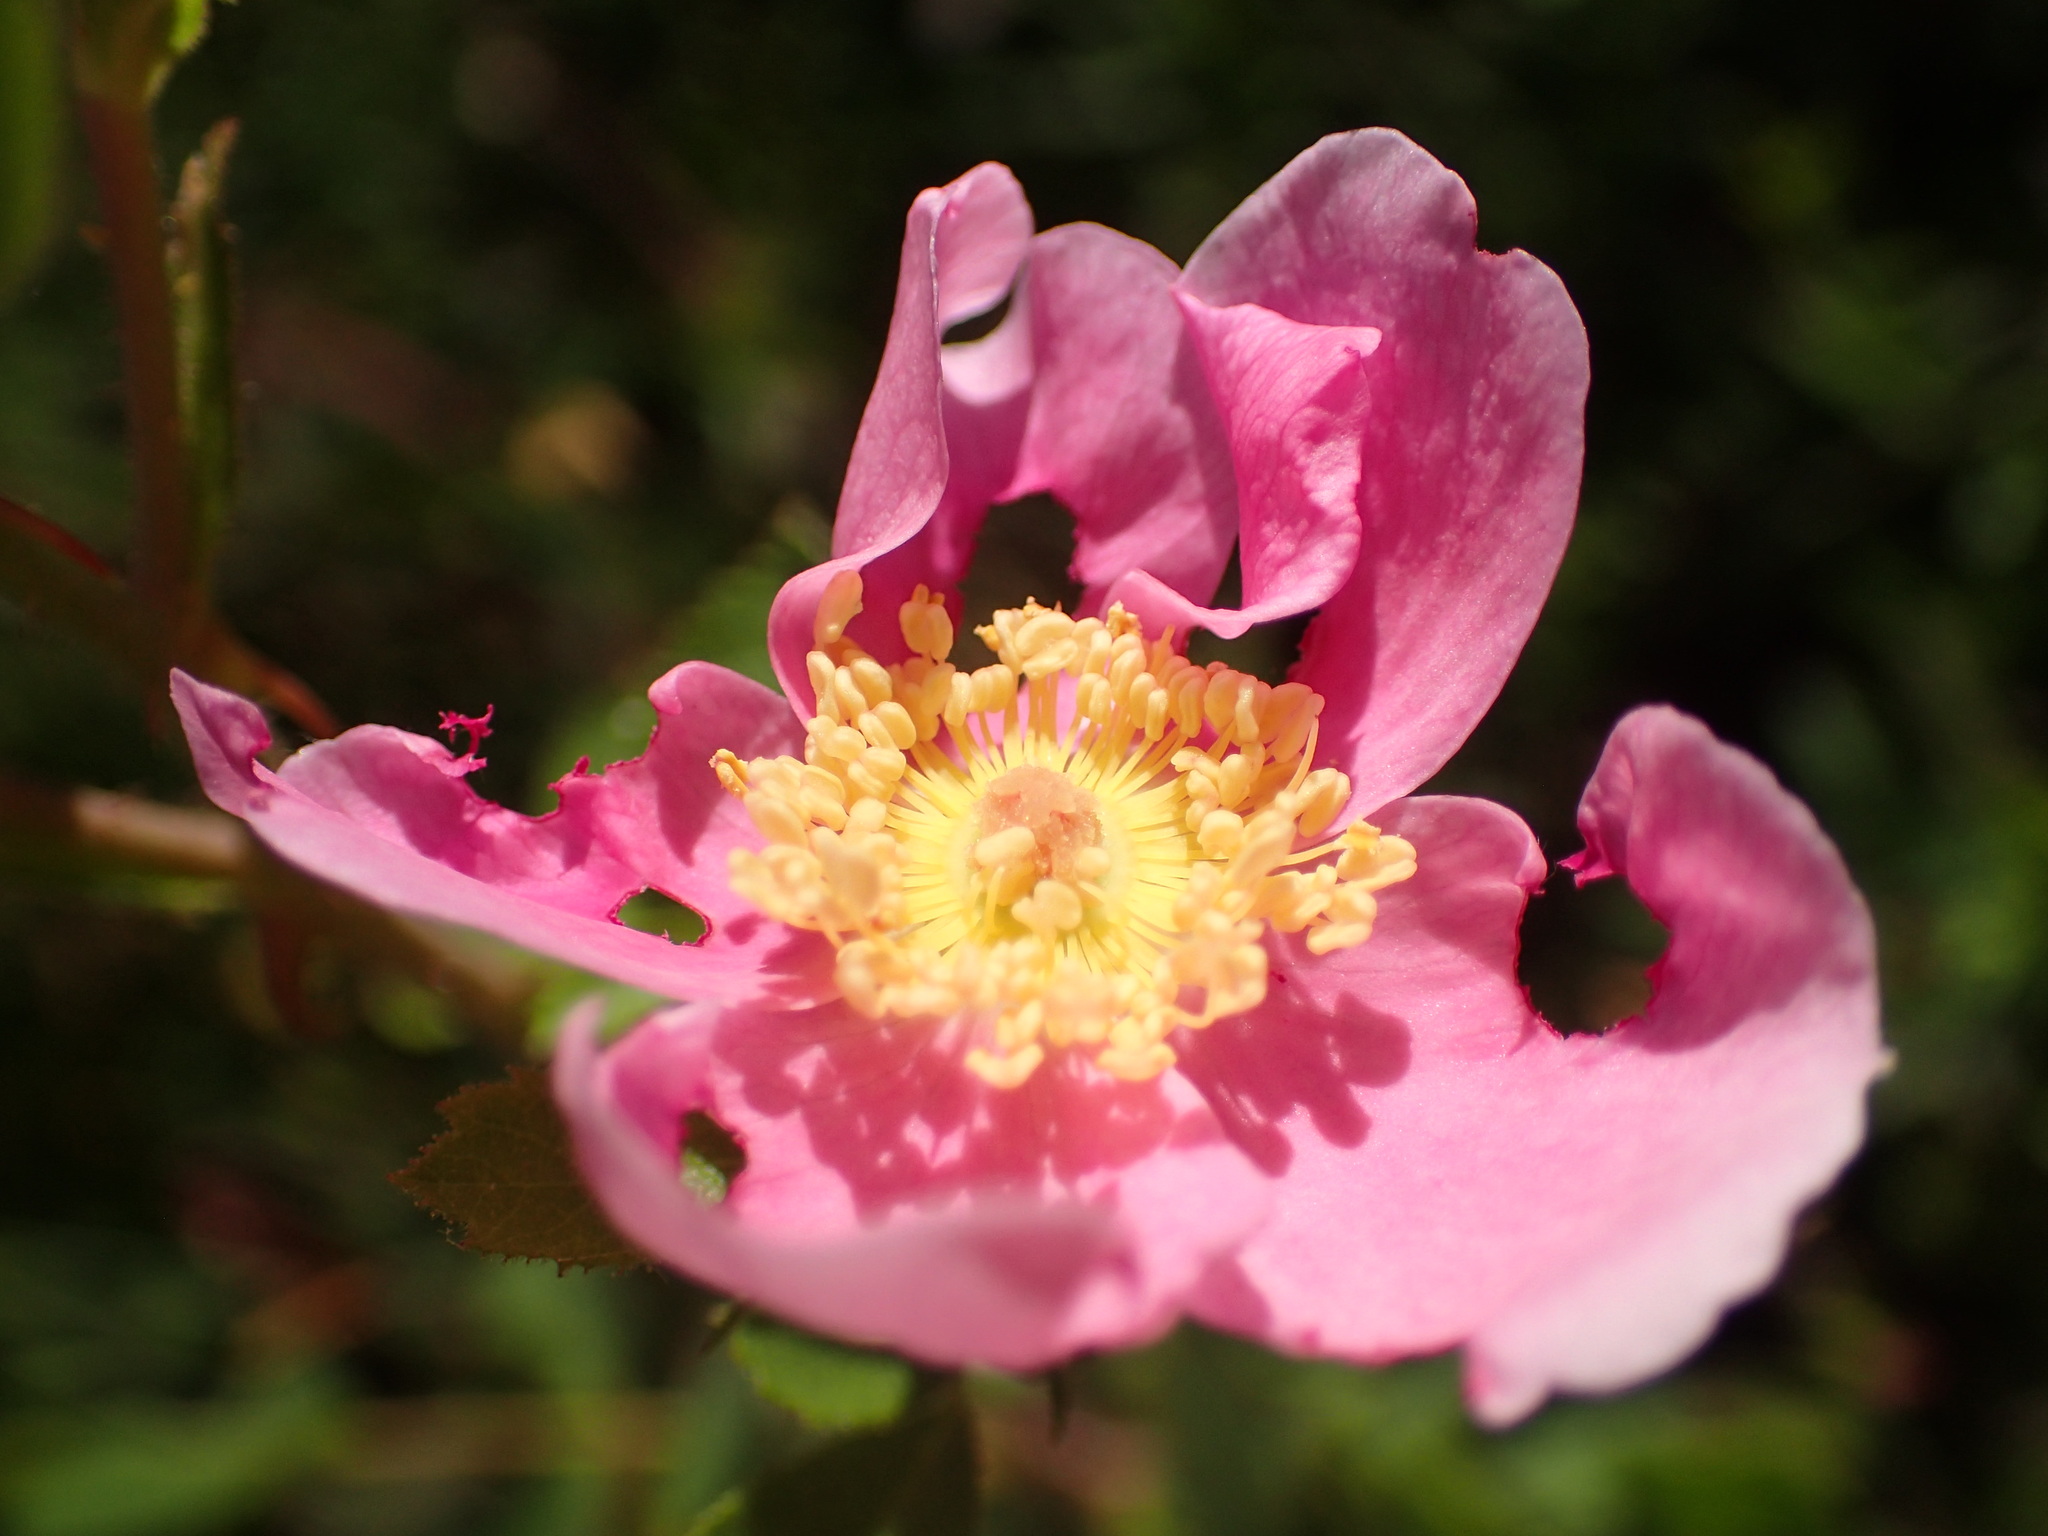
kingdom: Plantae
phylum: Tracheophyta
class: Magnoliopsida
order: Rosales
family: Rosaceae
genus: Rosa
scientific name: Rosa californica
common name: California rose
